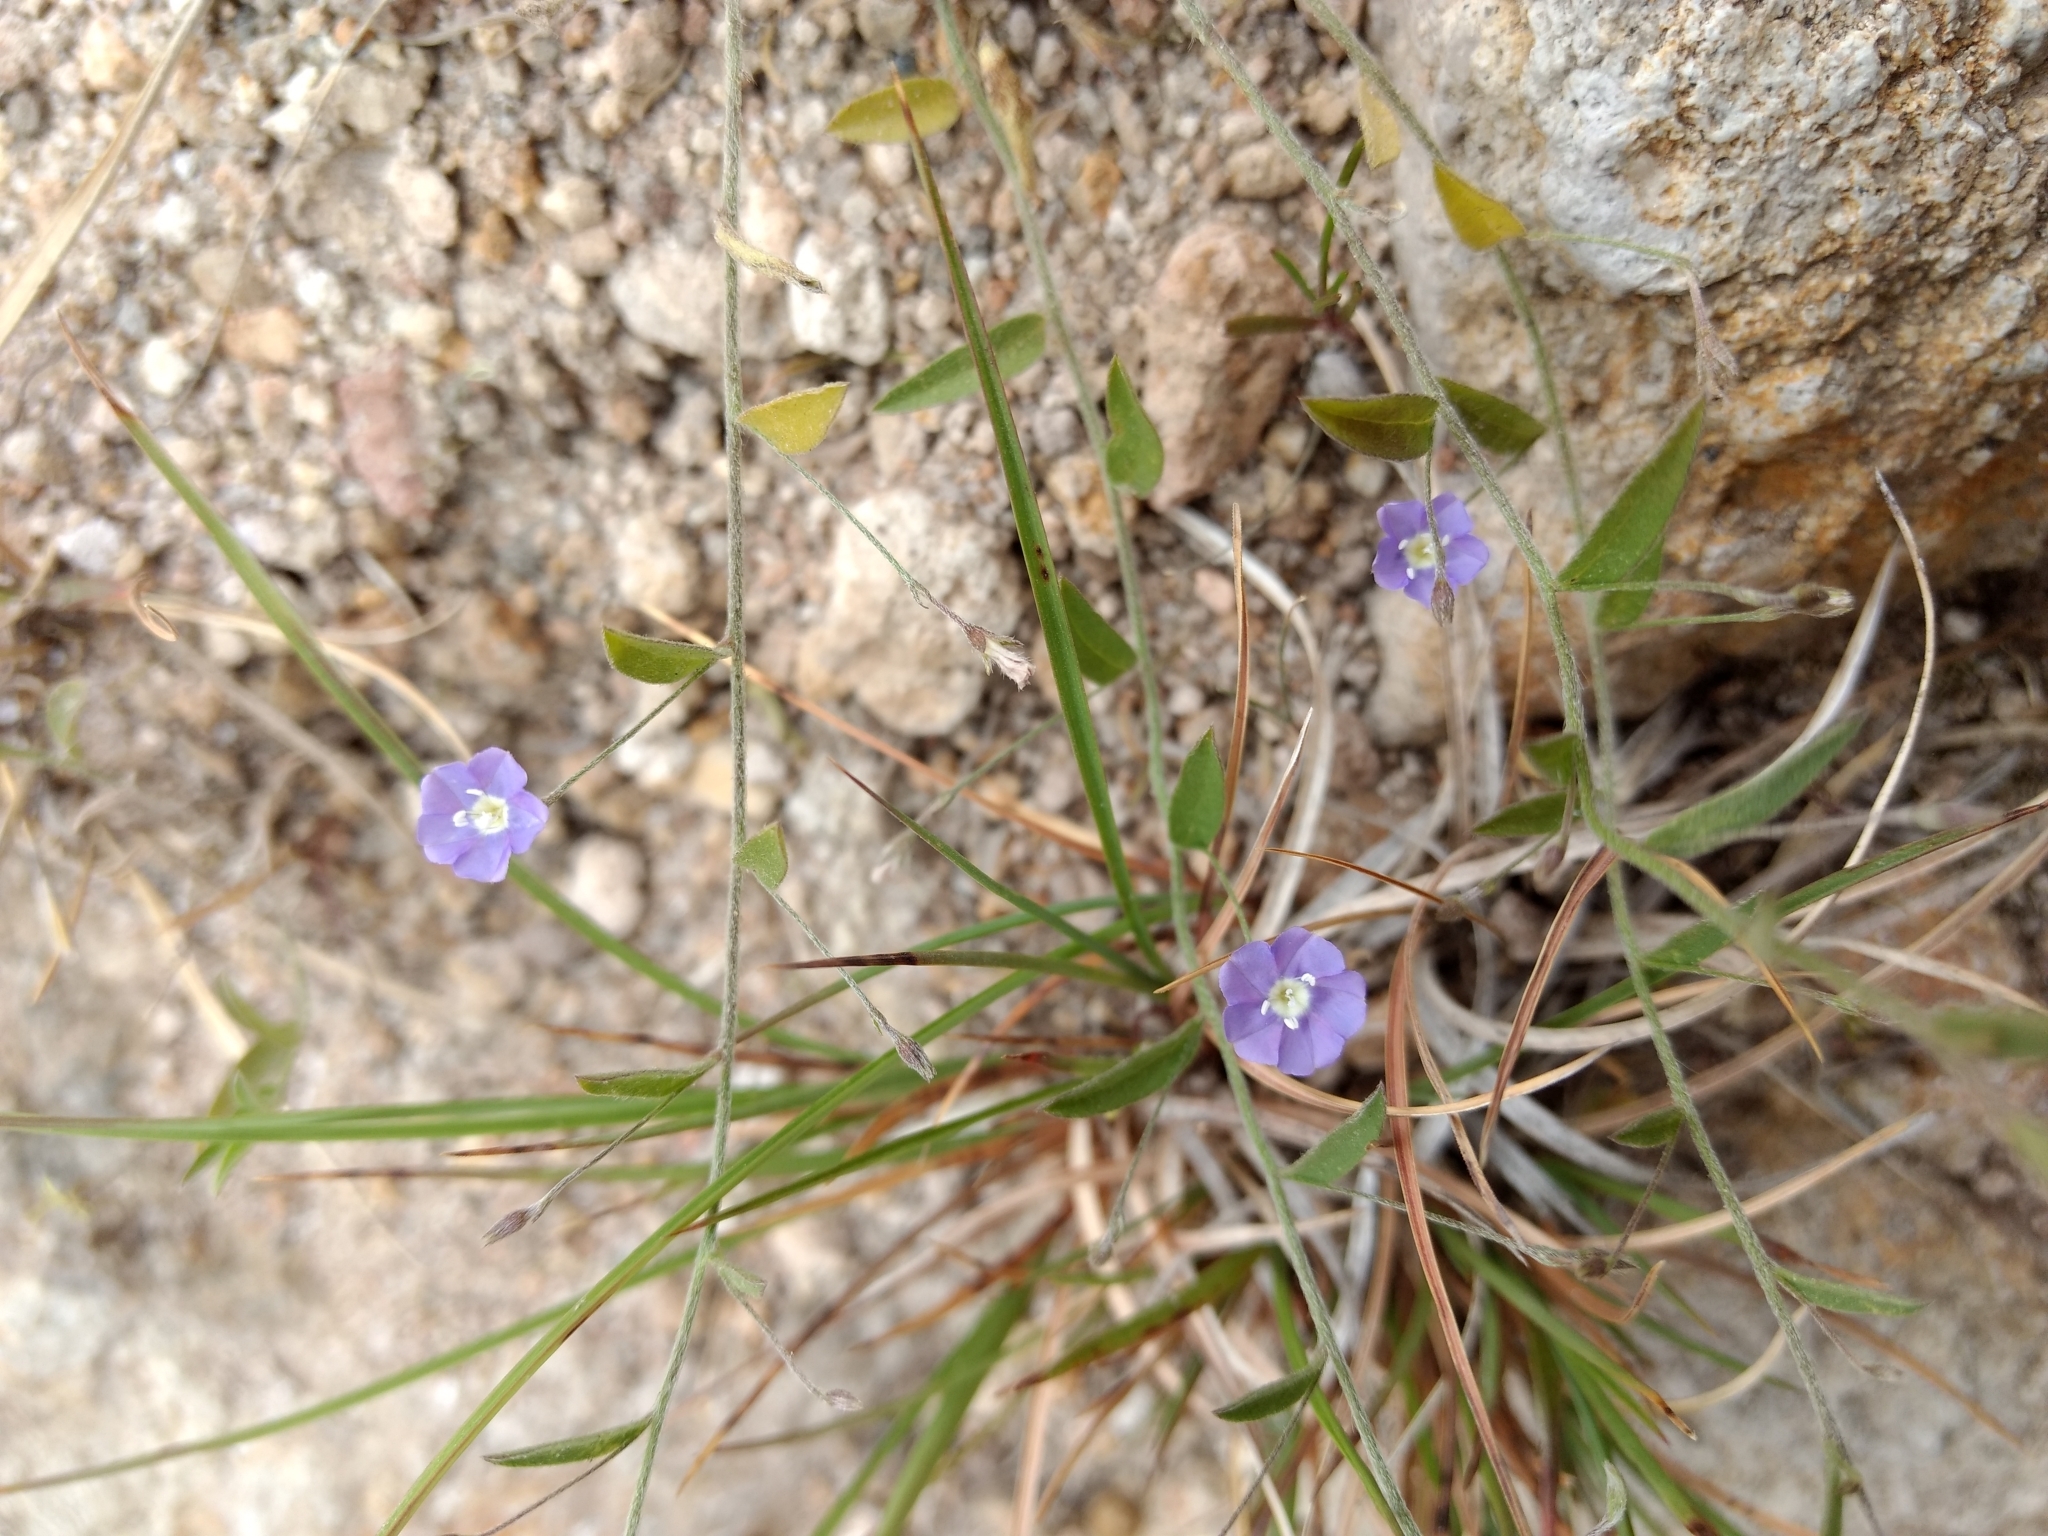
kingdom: Plantae
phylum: Tracheophyta
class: Magnoliopsida
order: Solanales
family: Convolvulaceae
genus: Evolvulus
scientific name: Evolvulus alsinoides
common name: Slender dwarf morning-glory
